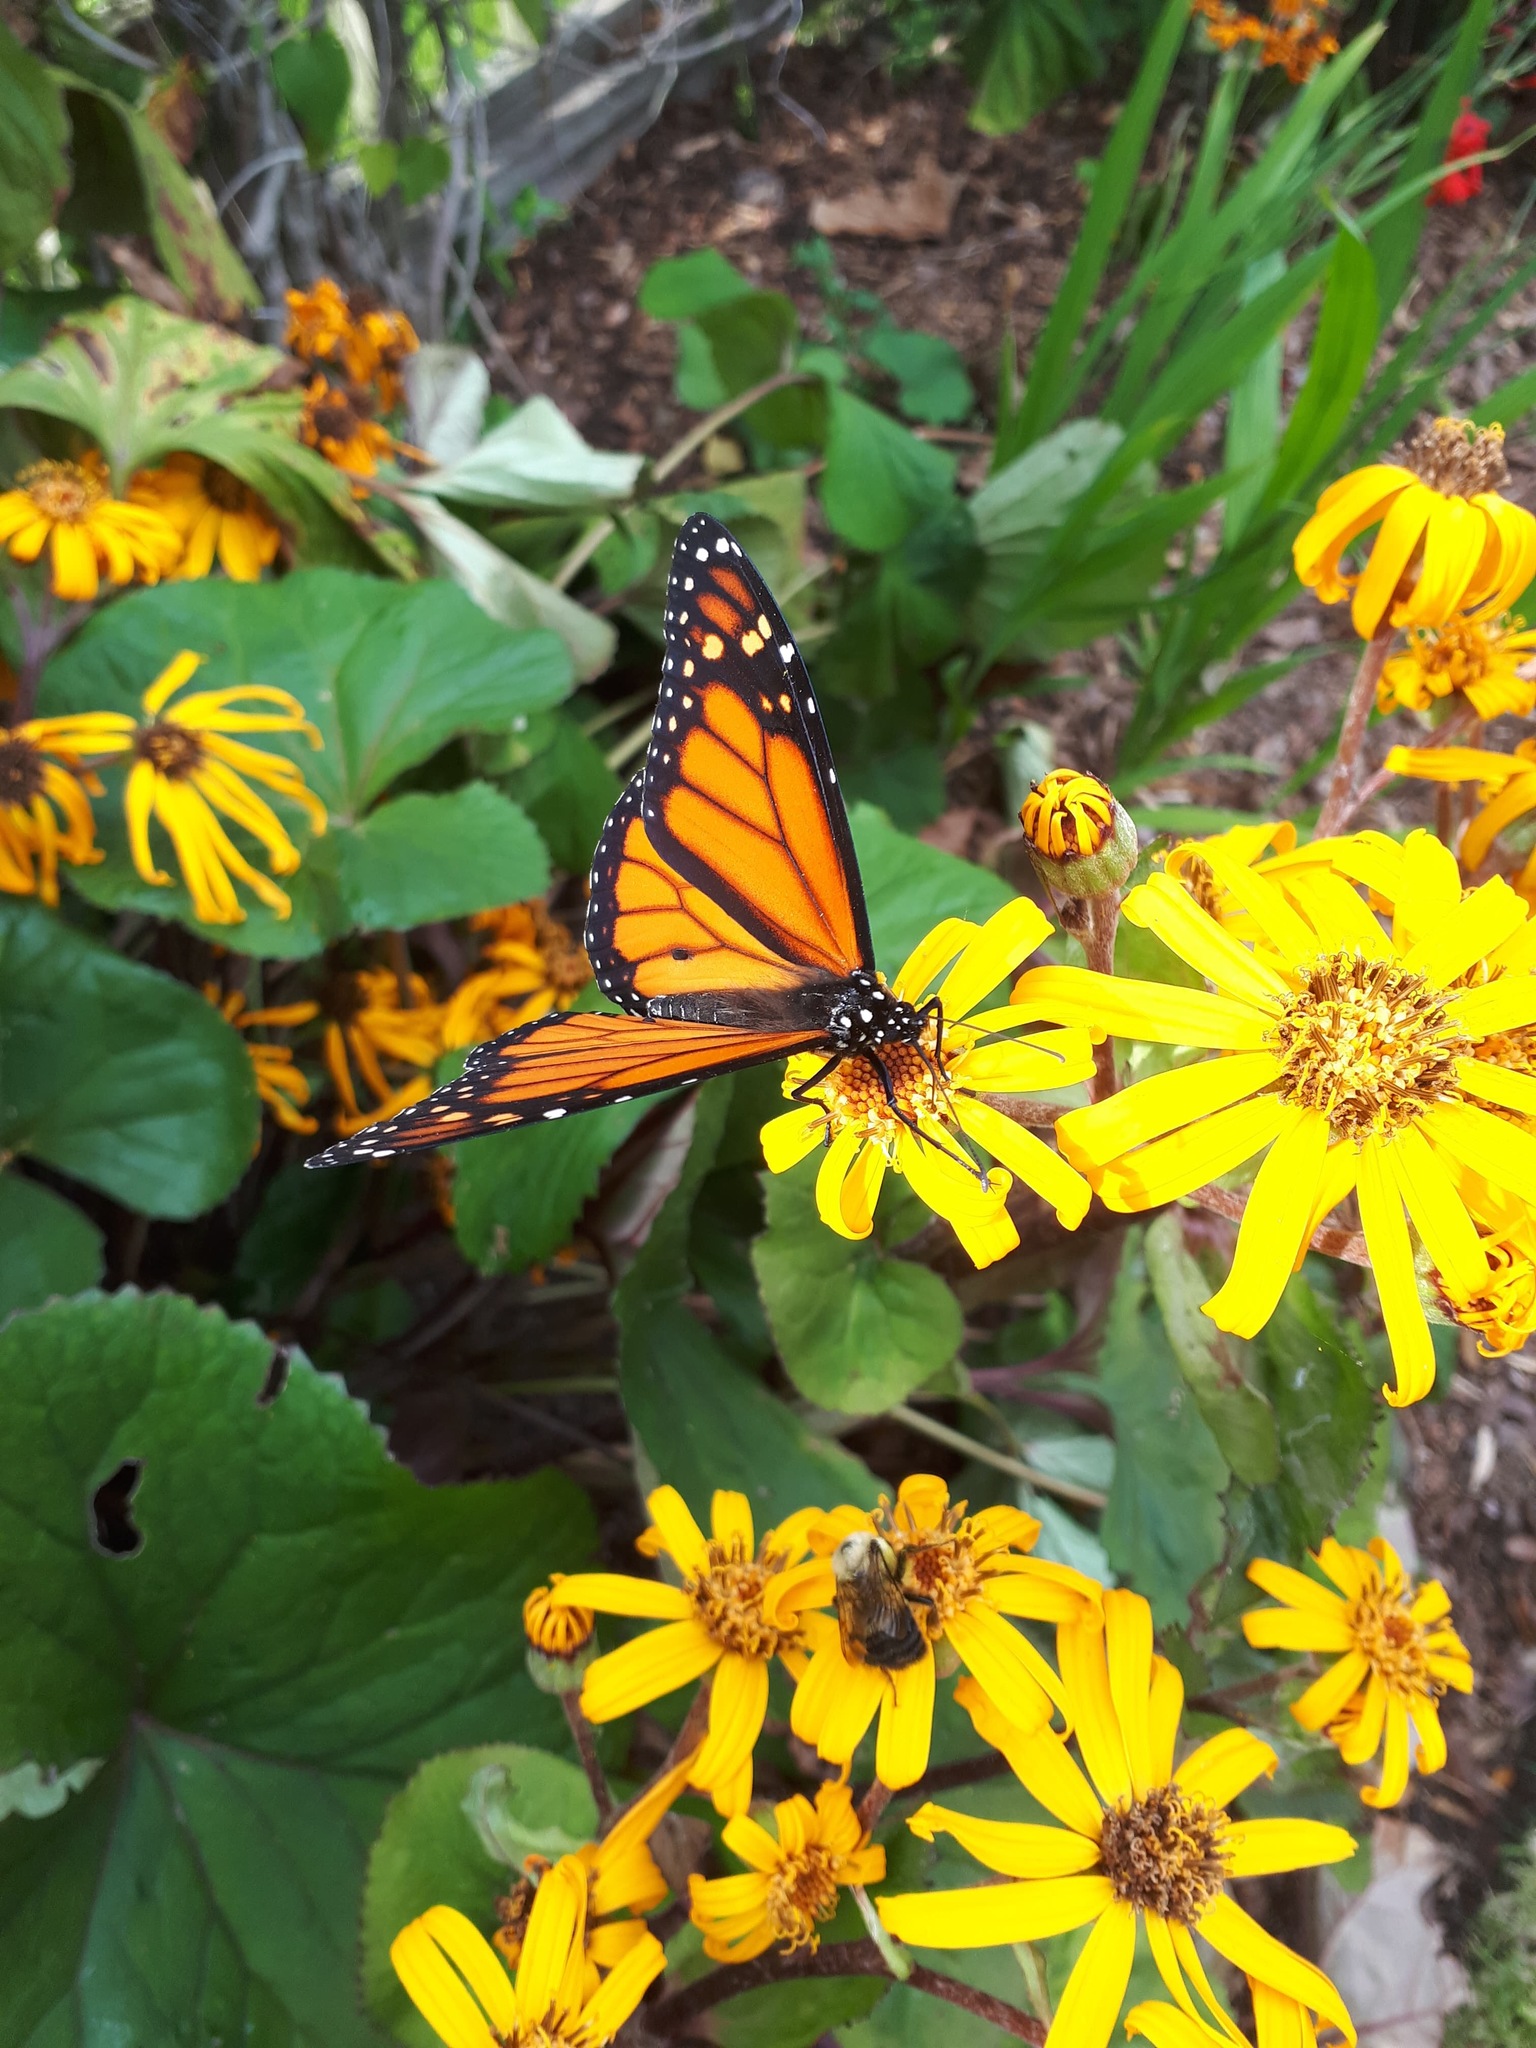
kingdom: Animalia
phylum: Arthropoda
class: Insecta
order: Lepidoptera
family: Nymphalidae
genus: Danaus
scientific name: Danaus plexippus
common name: Monarch
